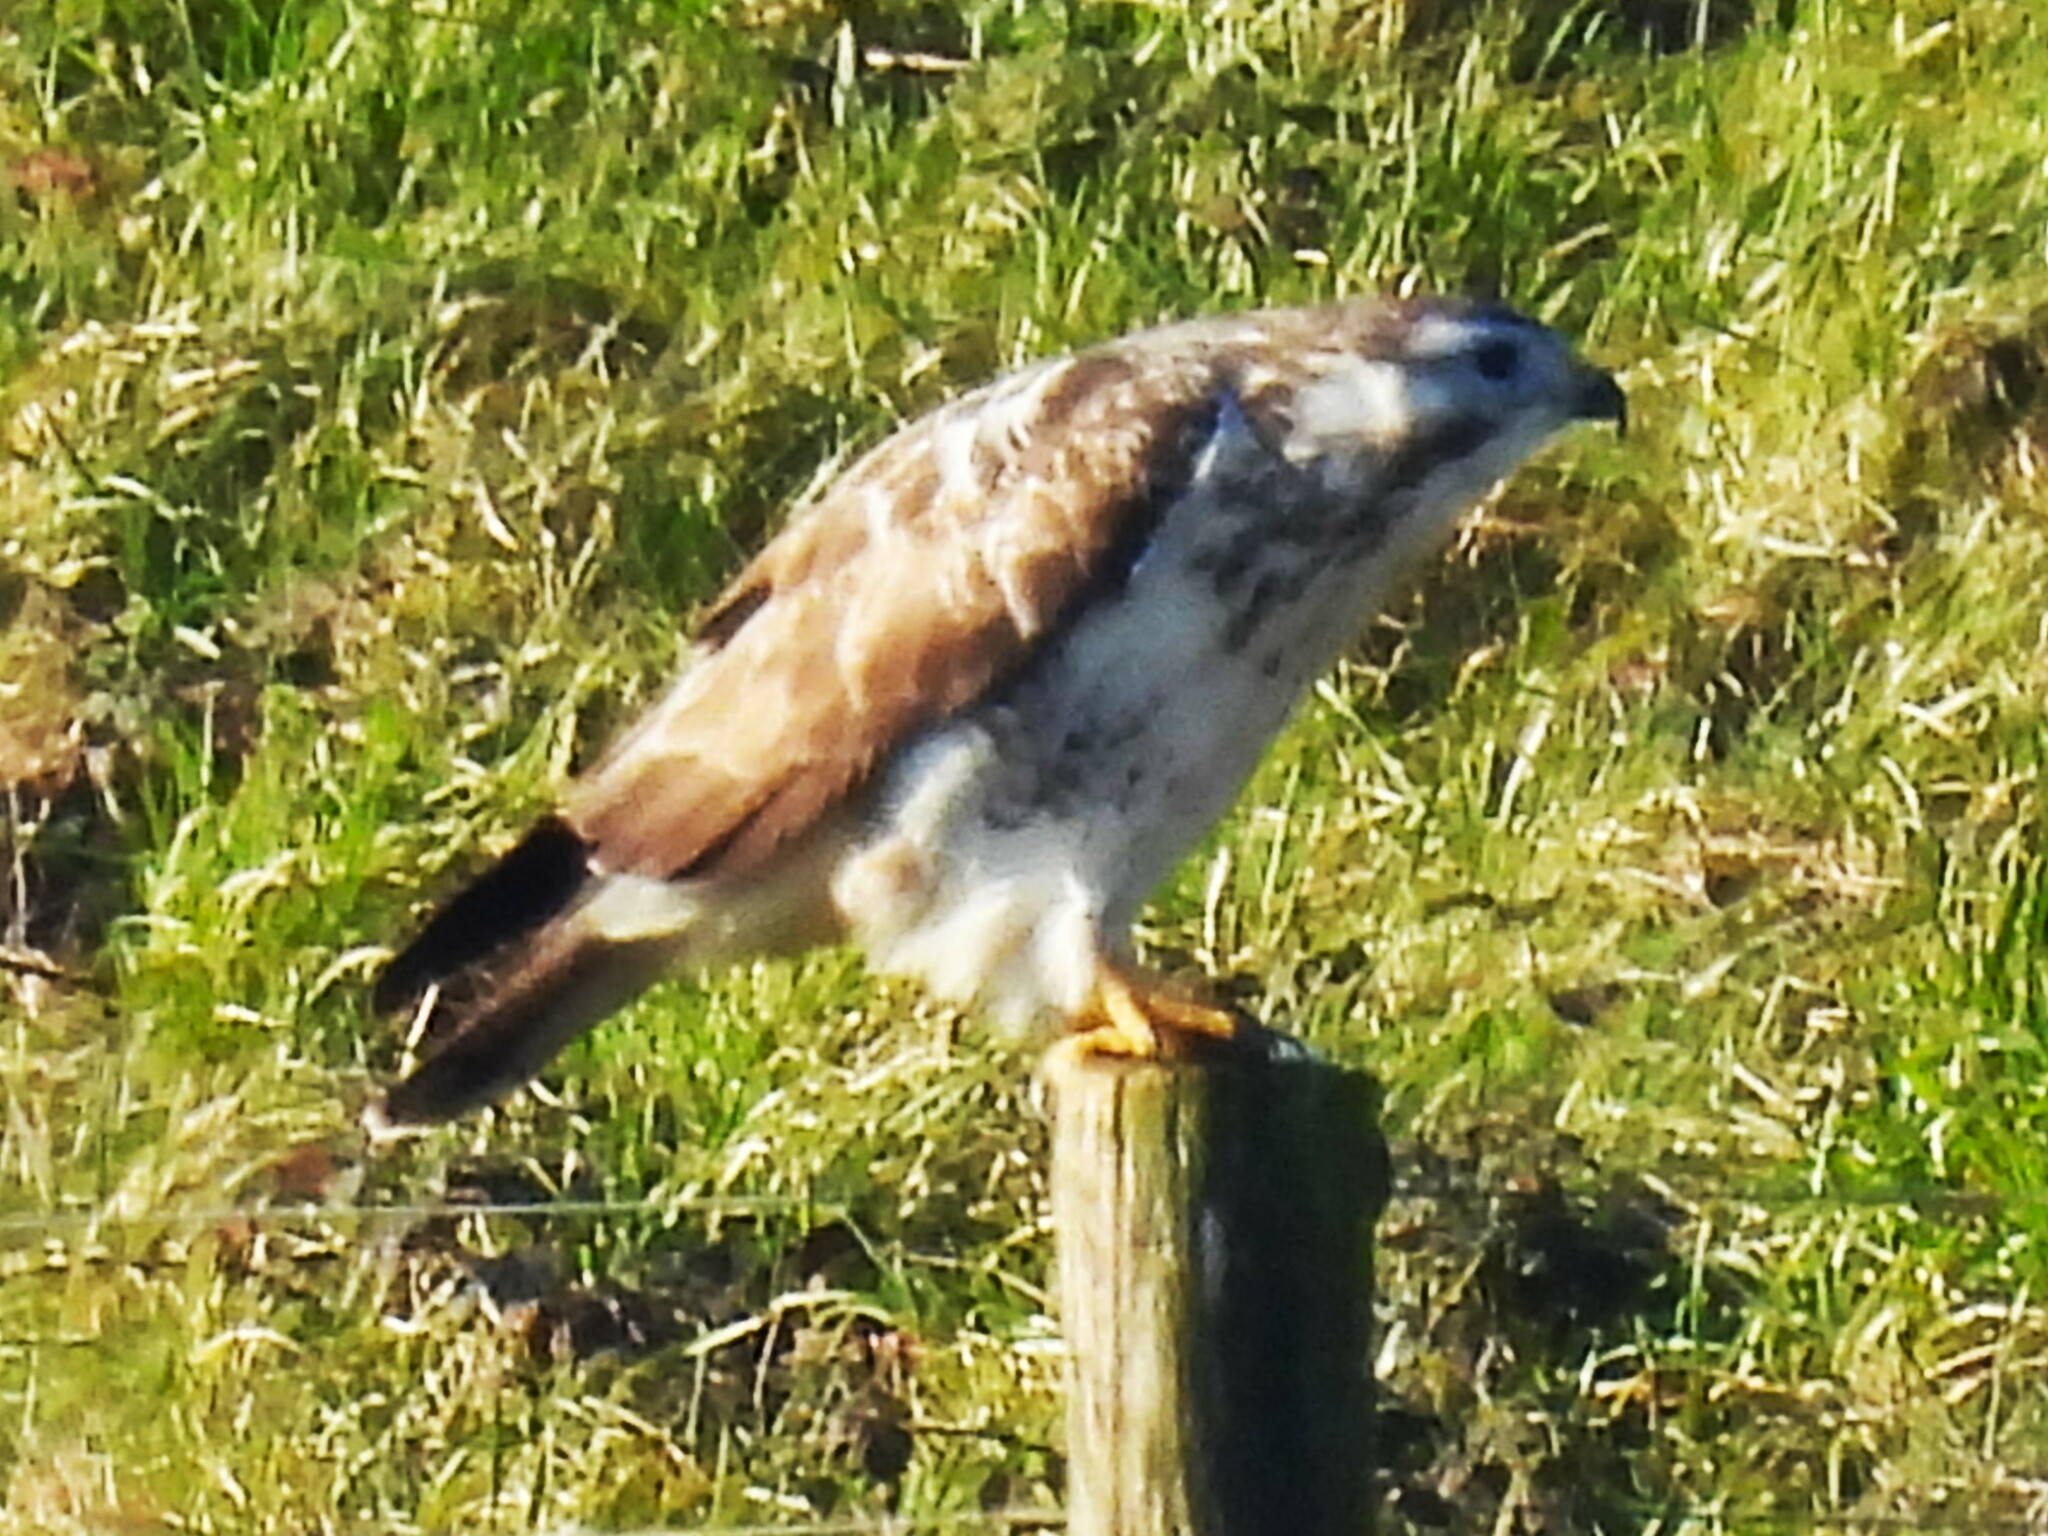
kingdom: Animalia
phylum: Chordata
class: Aves
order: Accipitriformes
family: Accipitridae
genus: Buteo
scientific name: Buteo buteo
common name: Common buzzard
